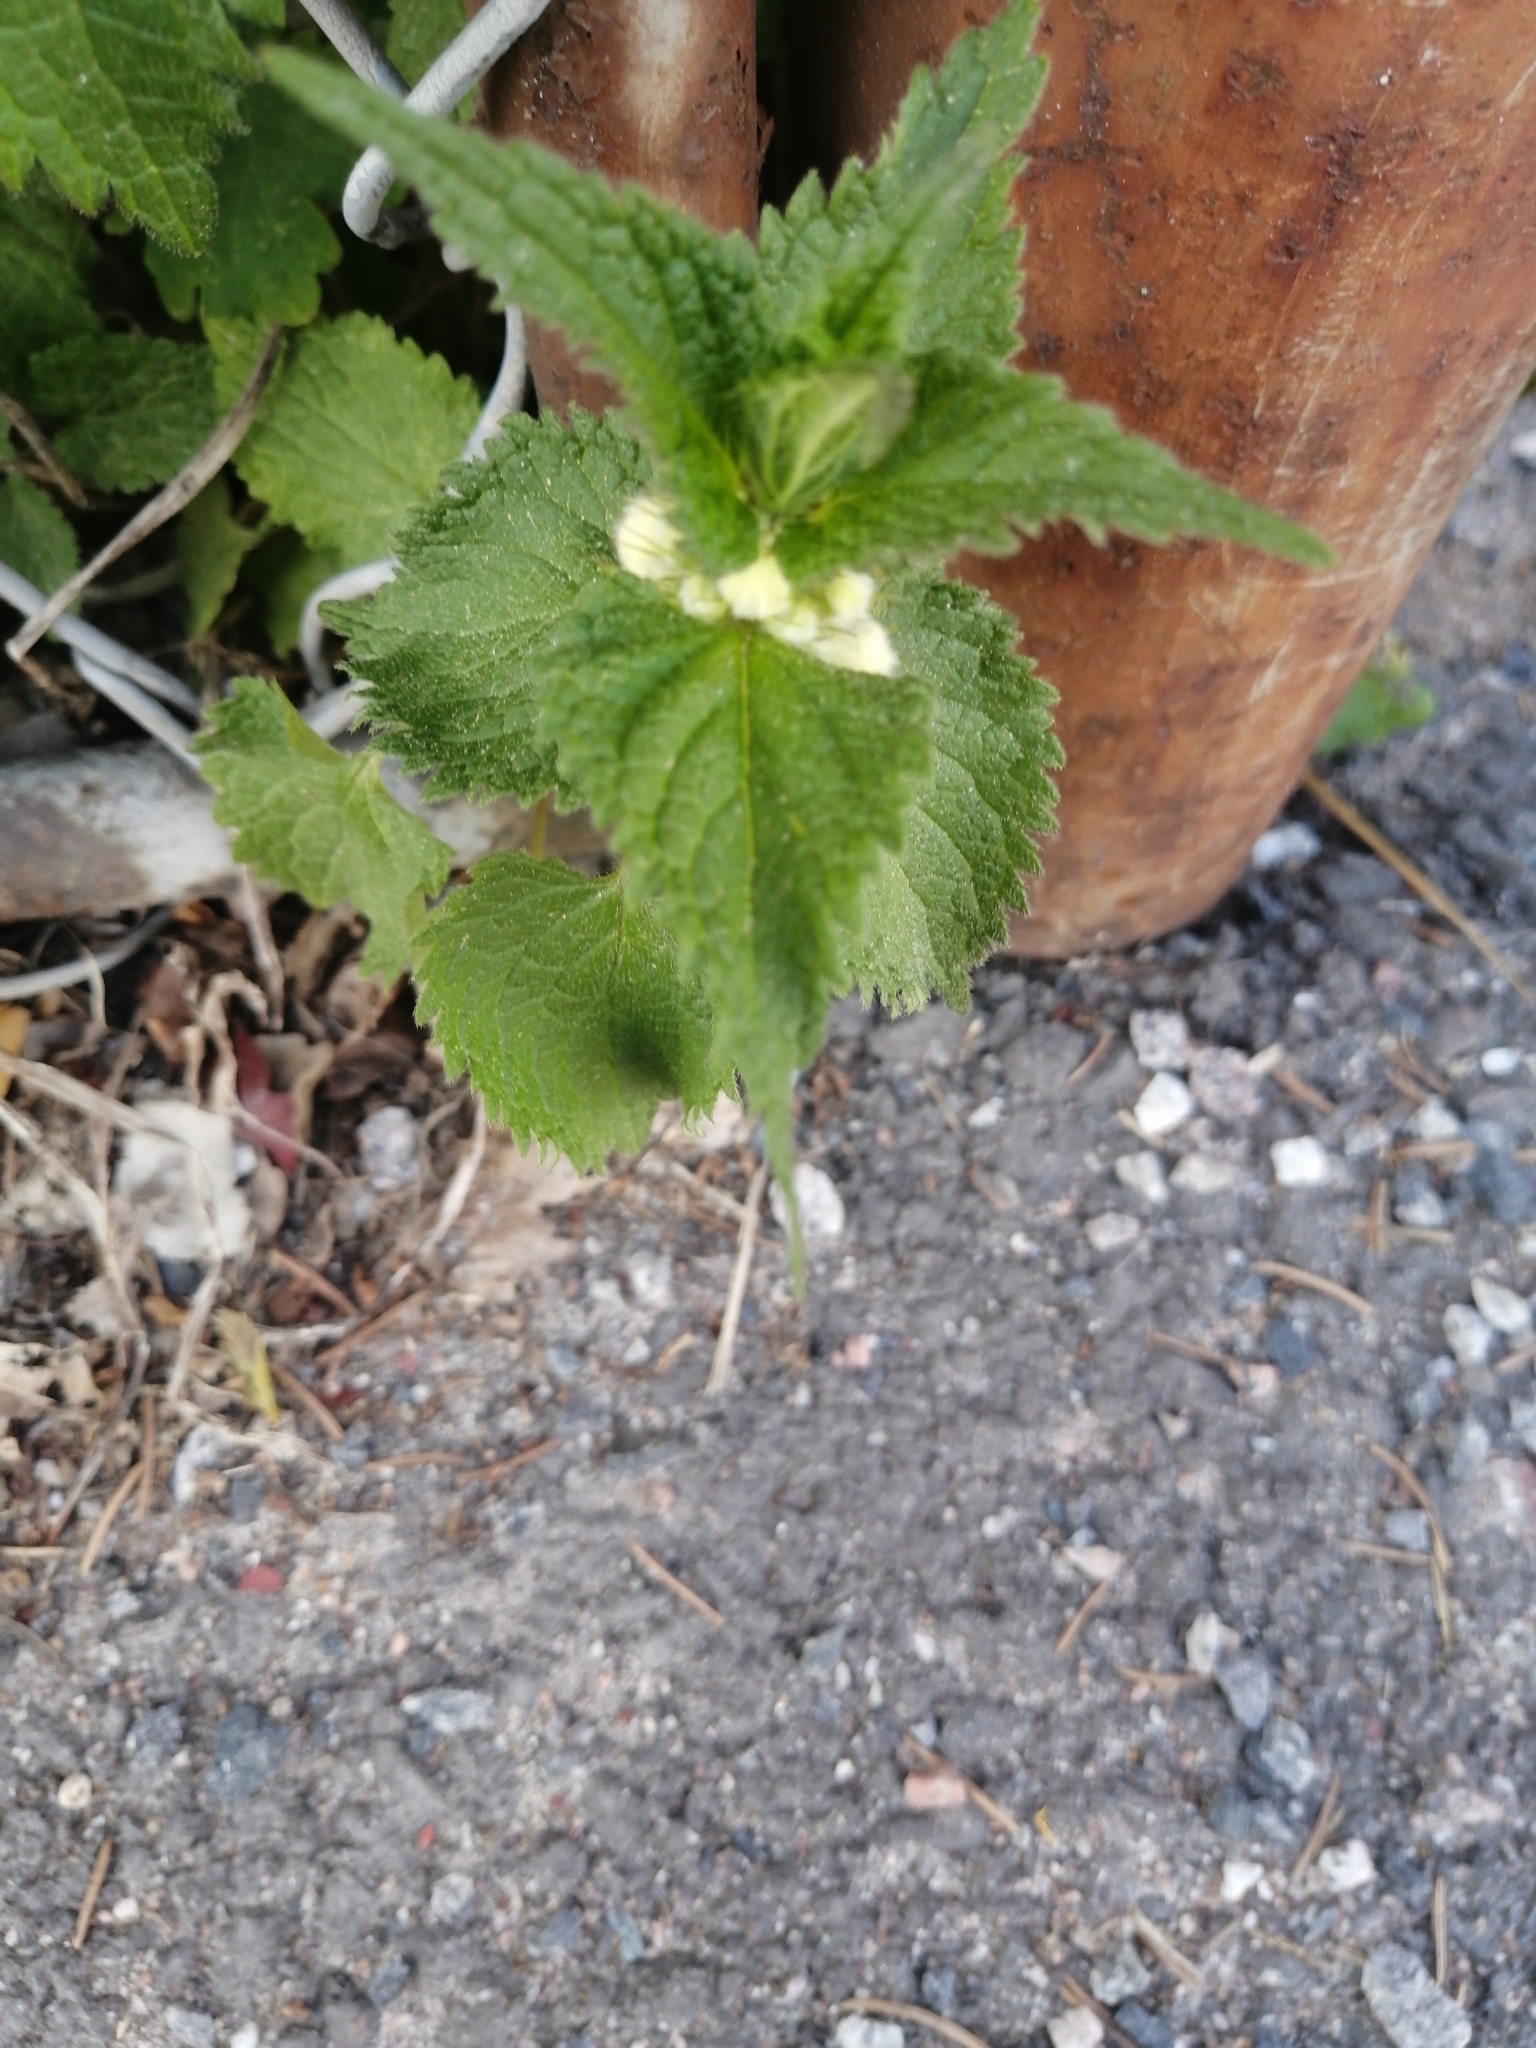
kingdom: Plantae
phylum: Tracheophyta
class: Magnoliopsida
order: Lamiales
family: Lamiaceae
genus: Lamium
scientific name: Lamium album
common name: White dead-nettle
